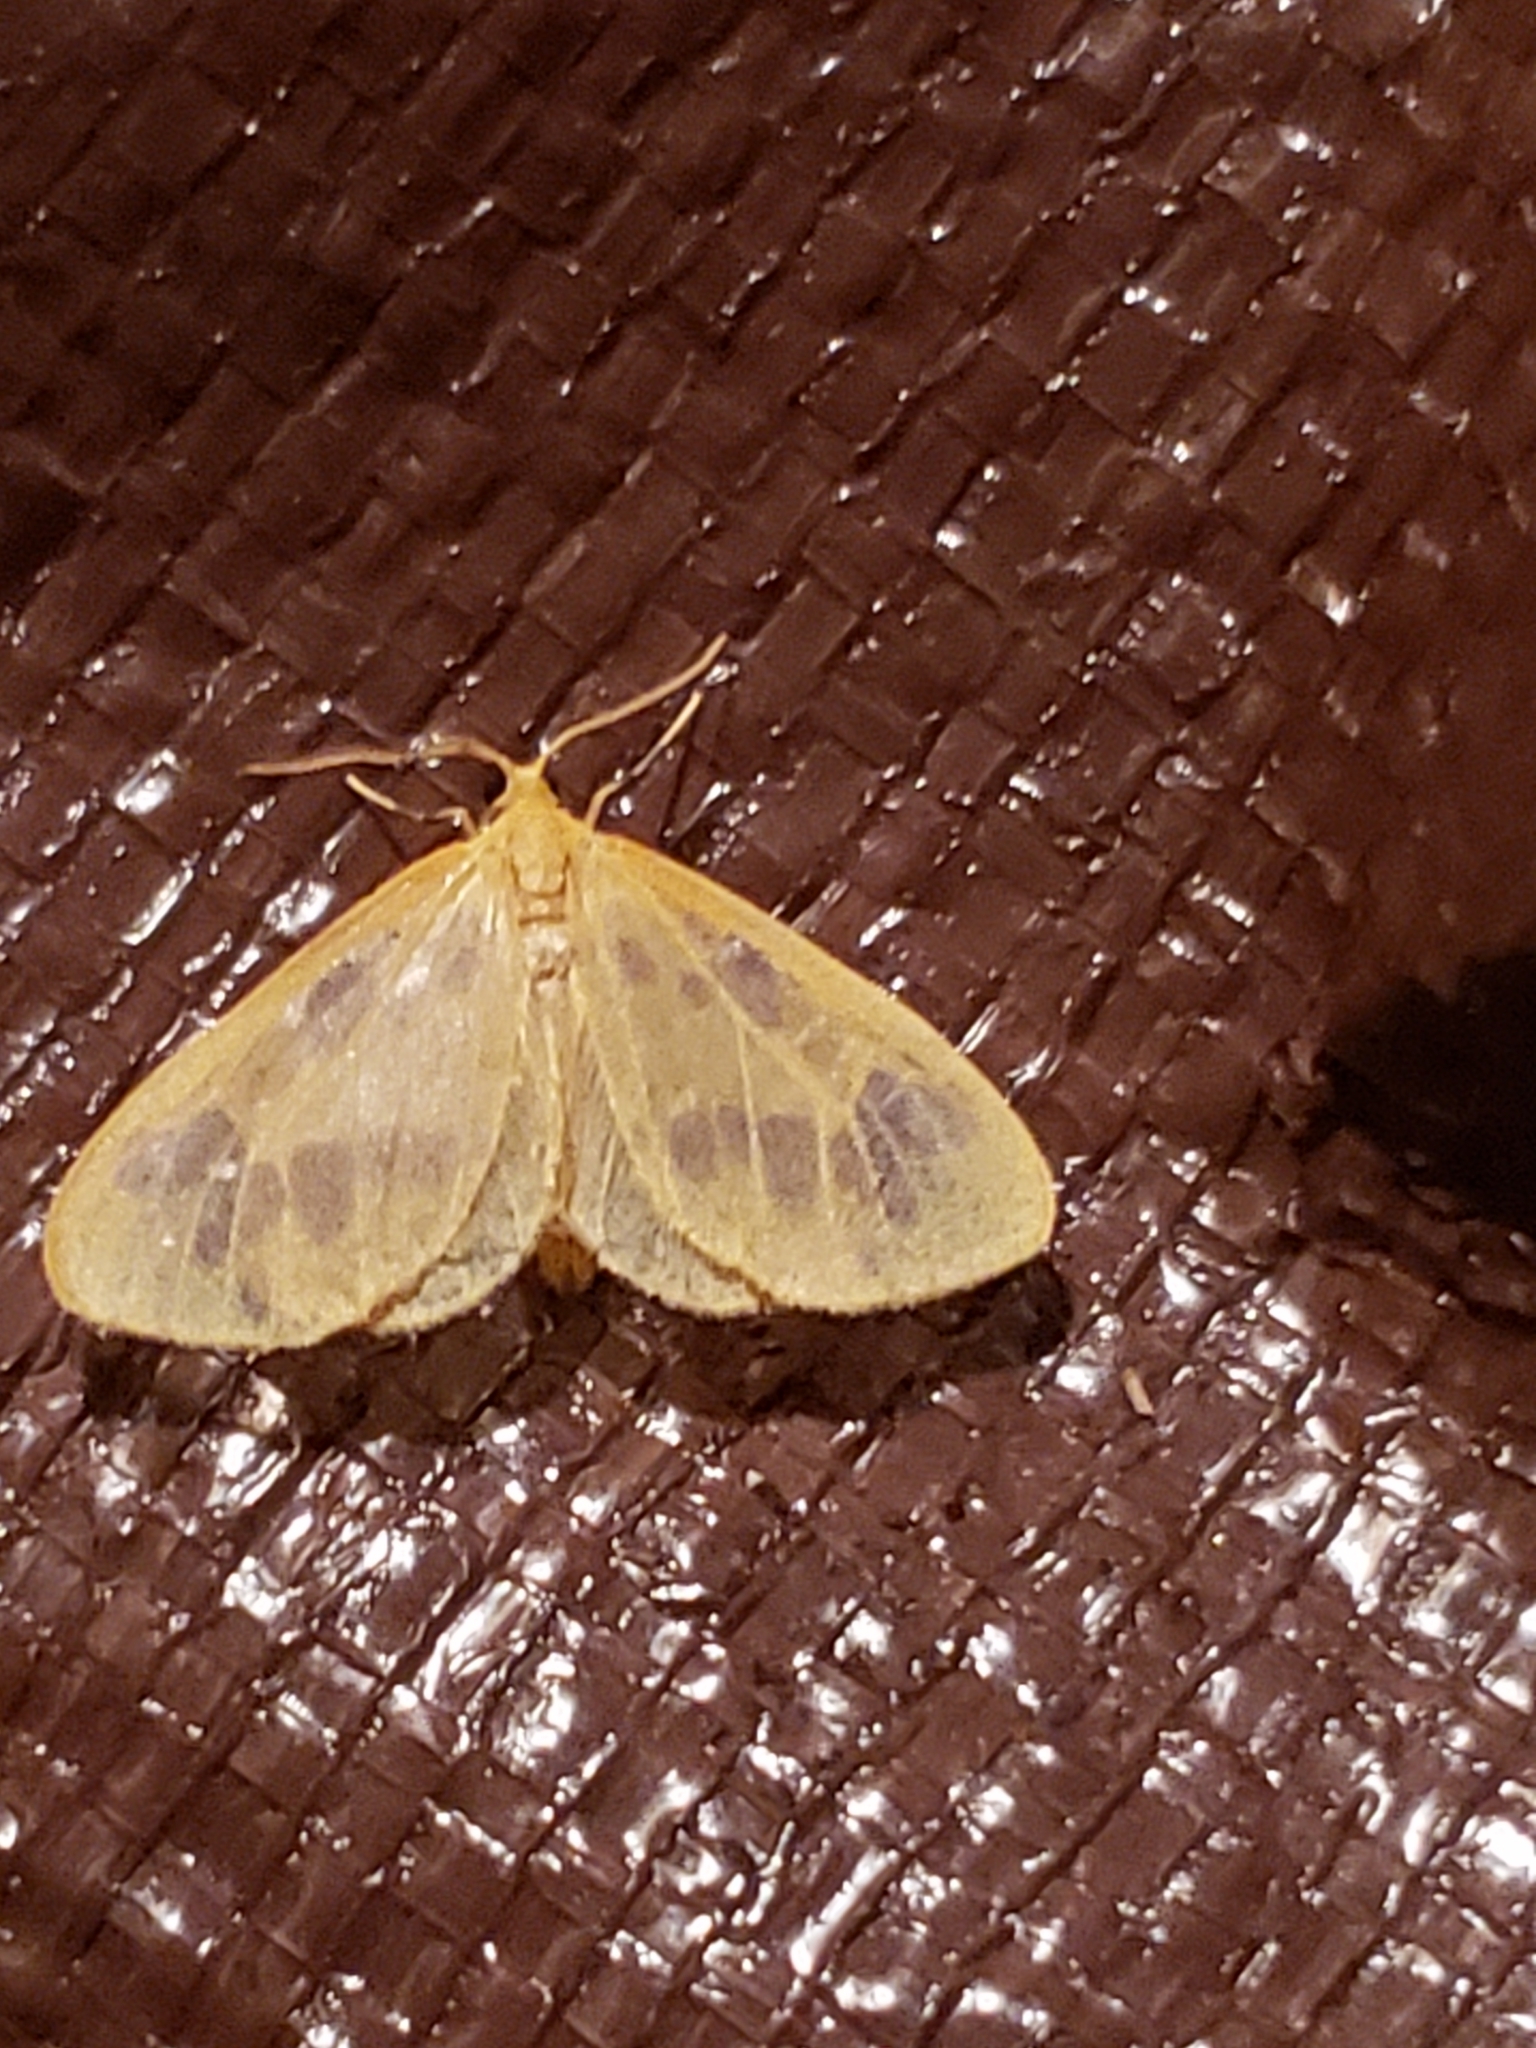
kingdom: Animalia
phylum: Arthropoda
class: Insecta
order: Lepidoptera
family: Geometridae
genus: Eubaphe
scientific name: Eubaphe mendica
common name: Beggar
